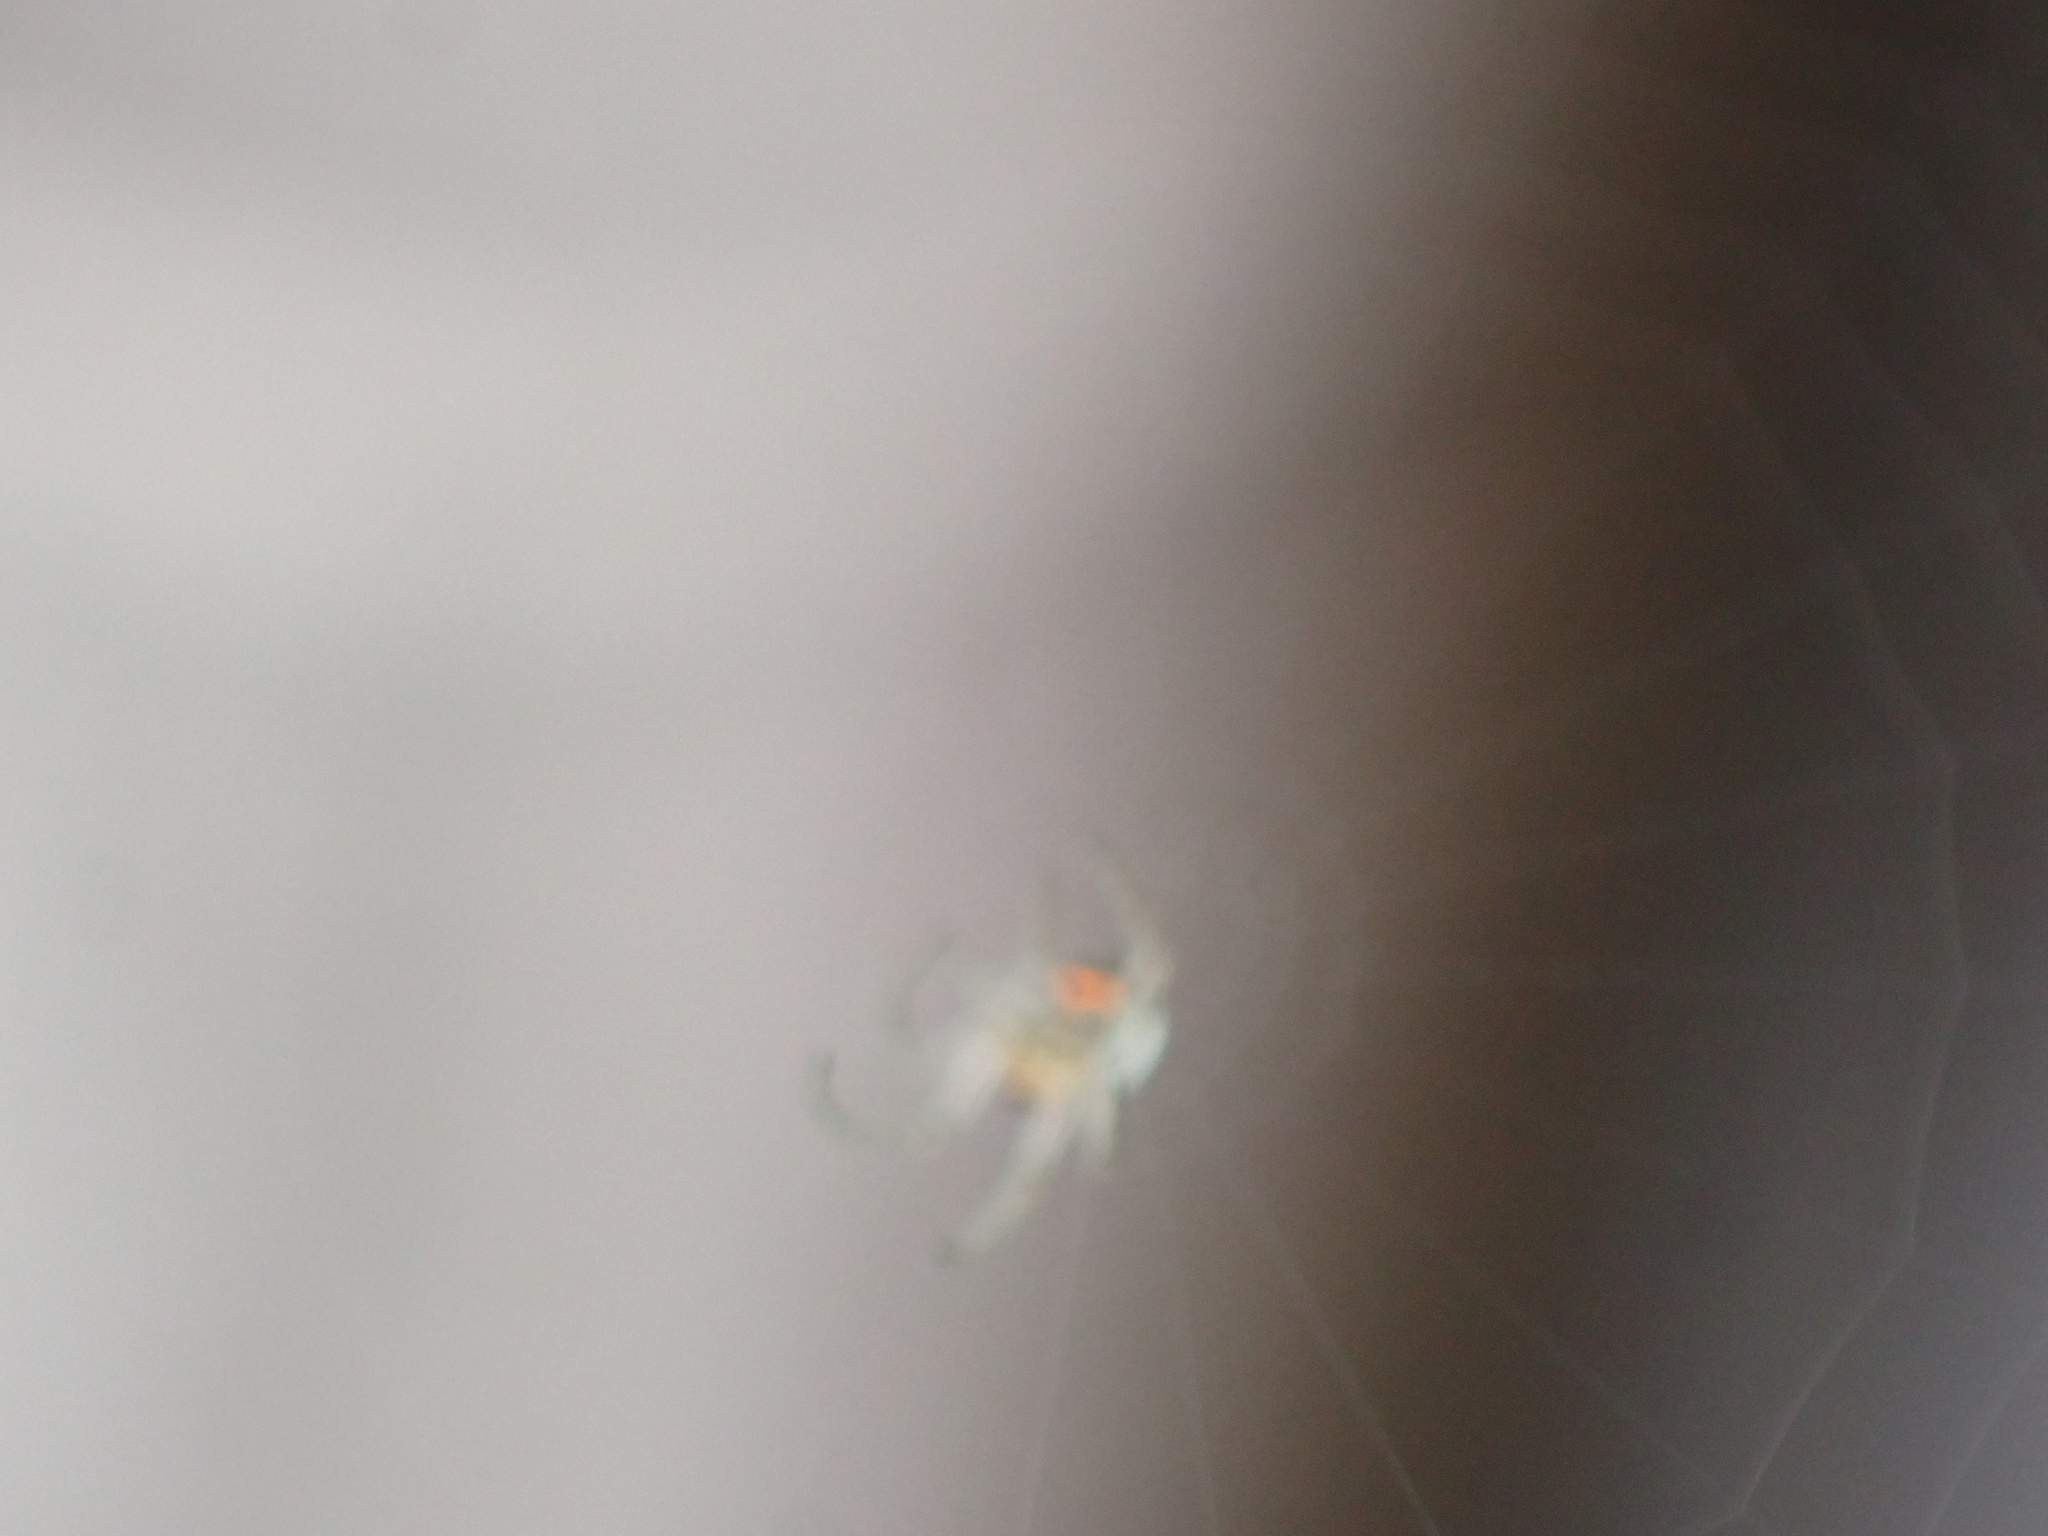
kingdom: Animalia
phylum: Arthropoda
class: Arachnida
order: Araneae
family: Tetragnathidae
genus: Leucauge
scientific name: Leucauge venusta
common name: Longjawed orb weavers
